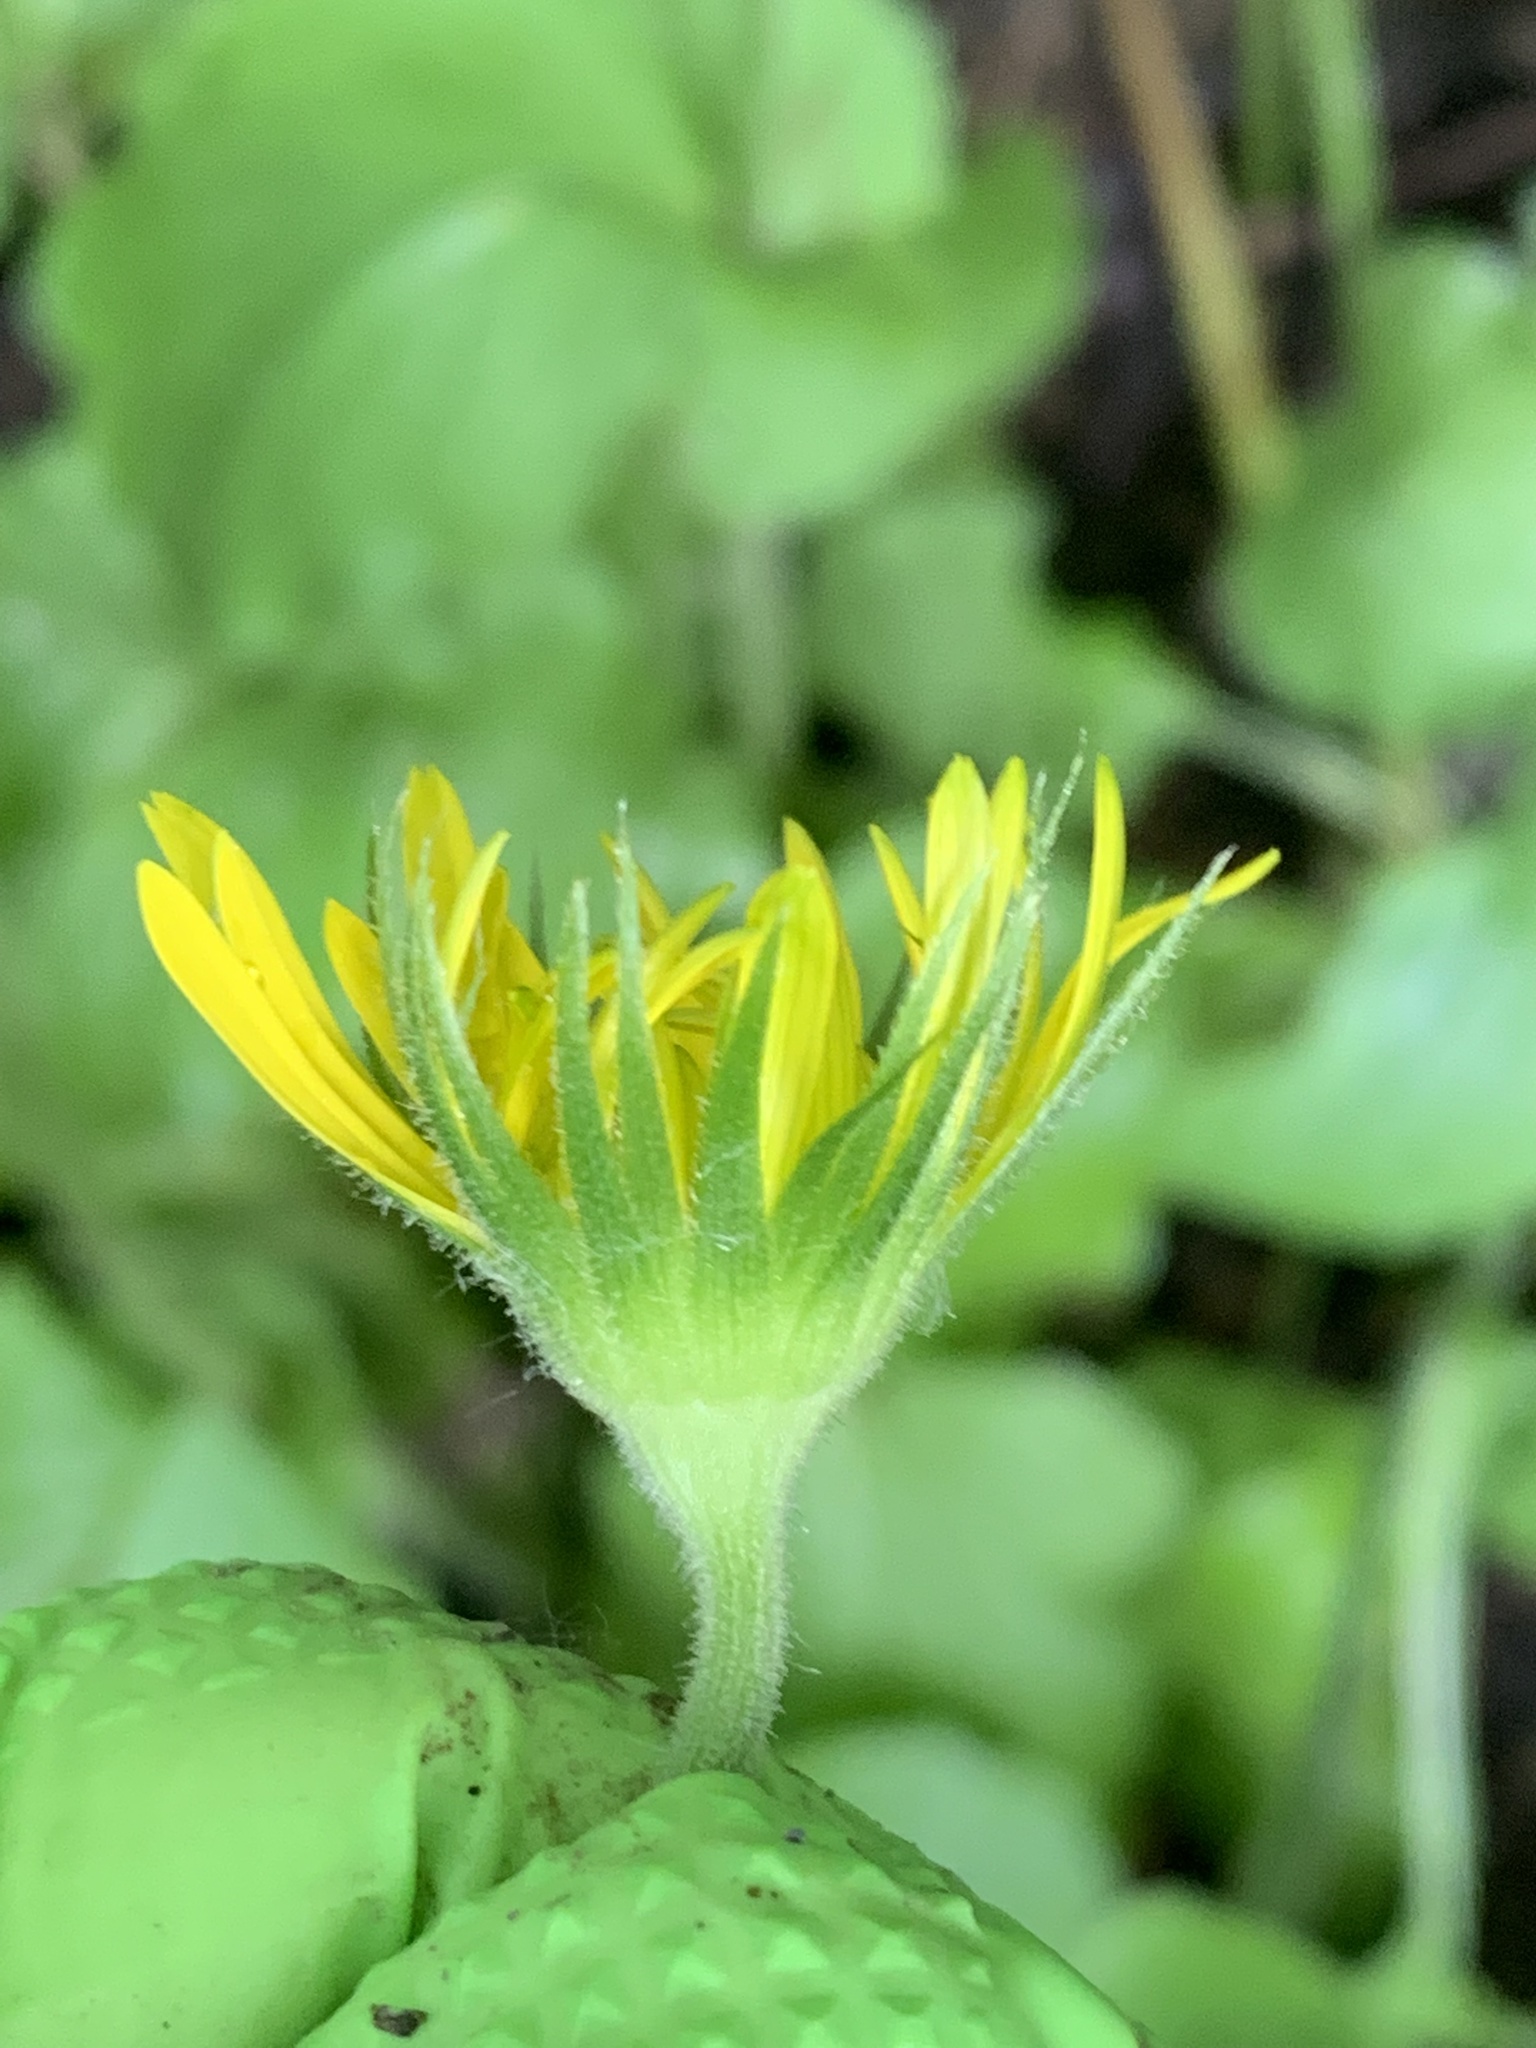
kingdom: Plantae
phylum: Tracheophyta
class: Magnoliopsida
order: Asterales
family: Asteraceae
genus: Doronicum
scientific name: Doronicum willdenowii
